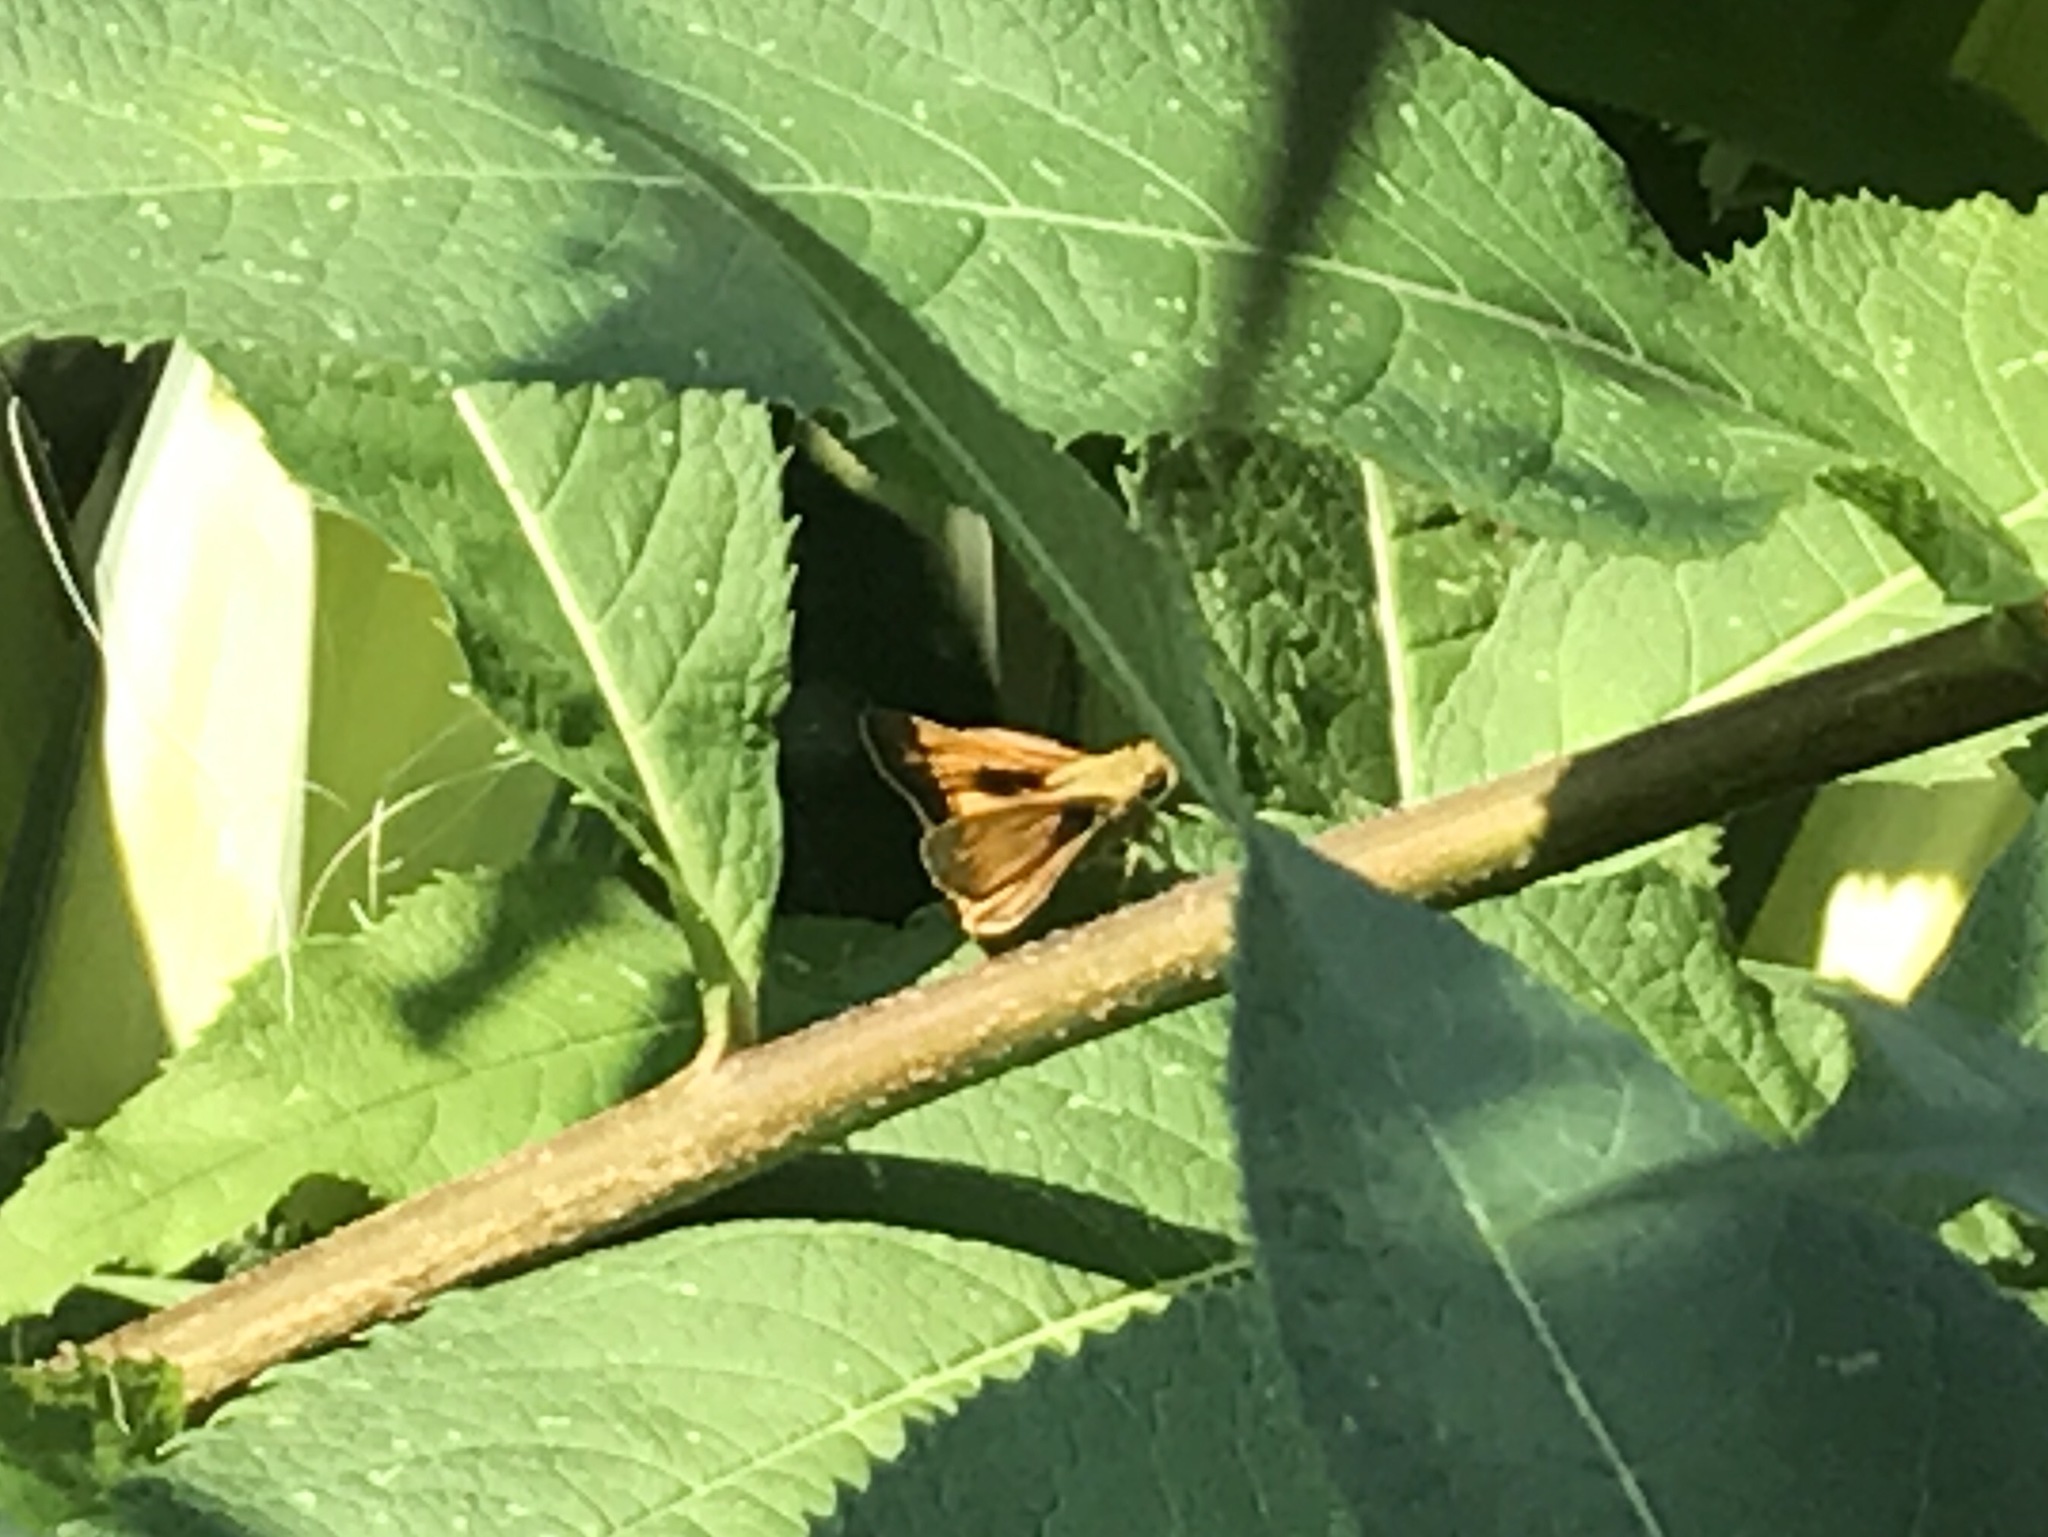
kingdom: Animalia
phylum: Arthropoda
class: Insecta
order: Lepidoptera
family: Hesperiidae
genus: Atalopedes
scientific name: Atalopedes
